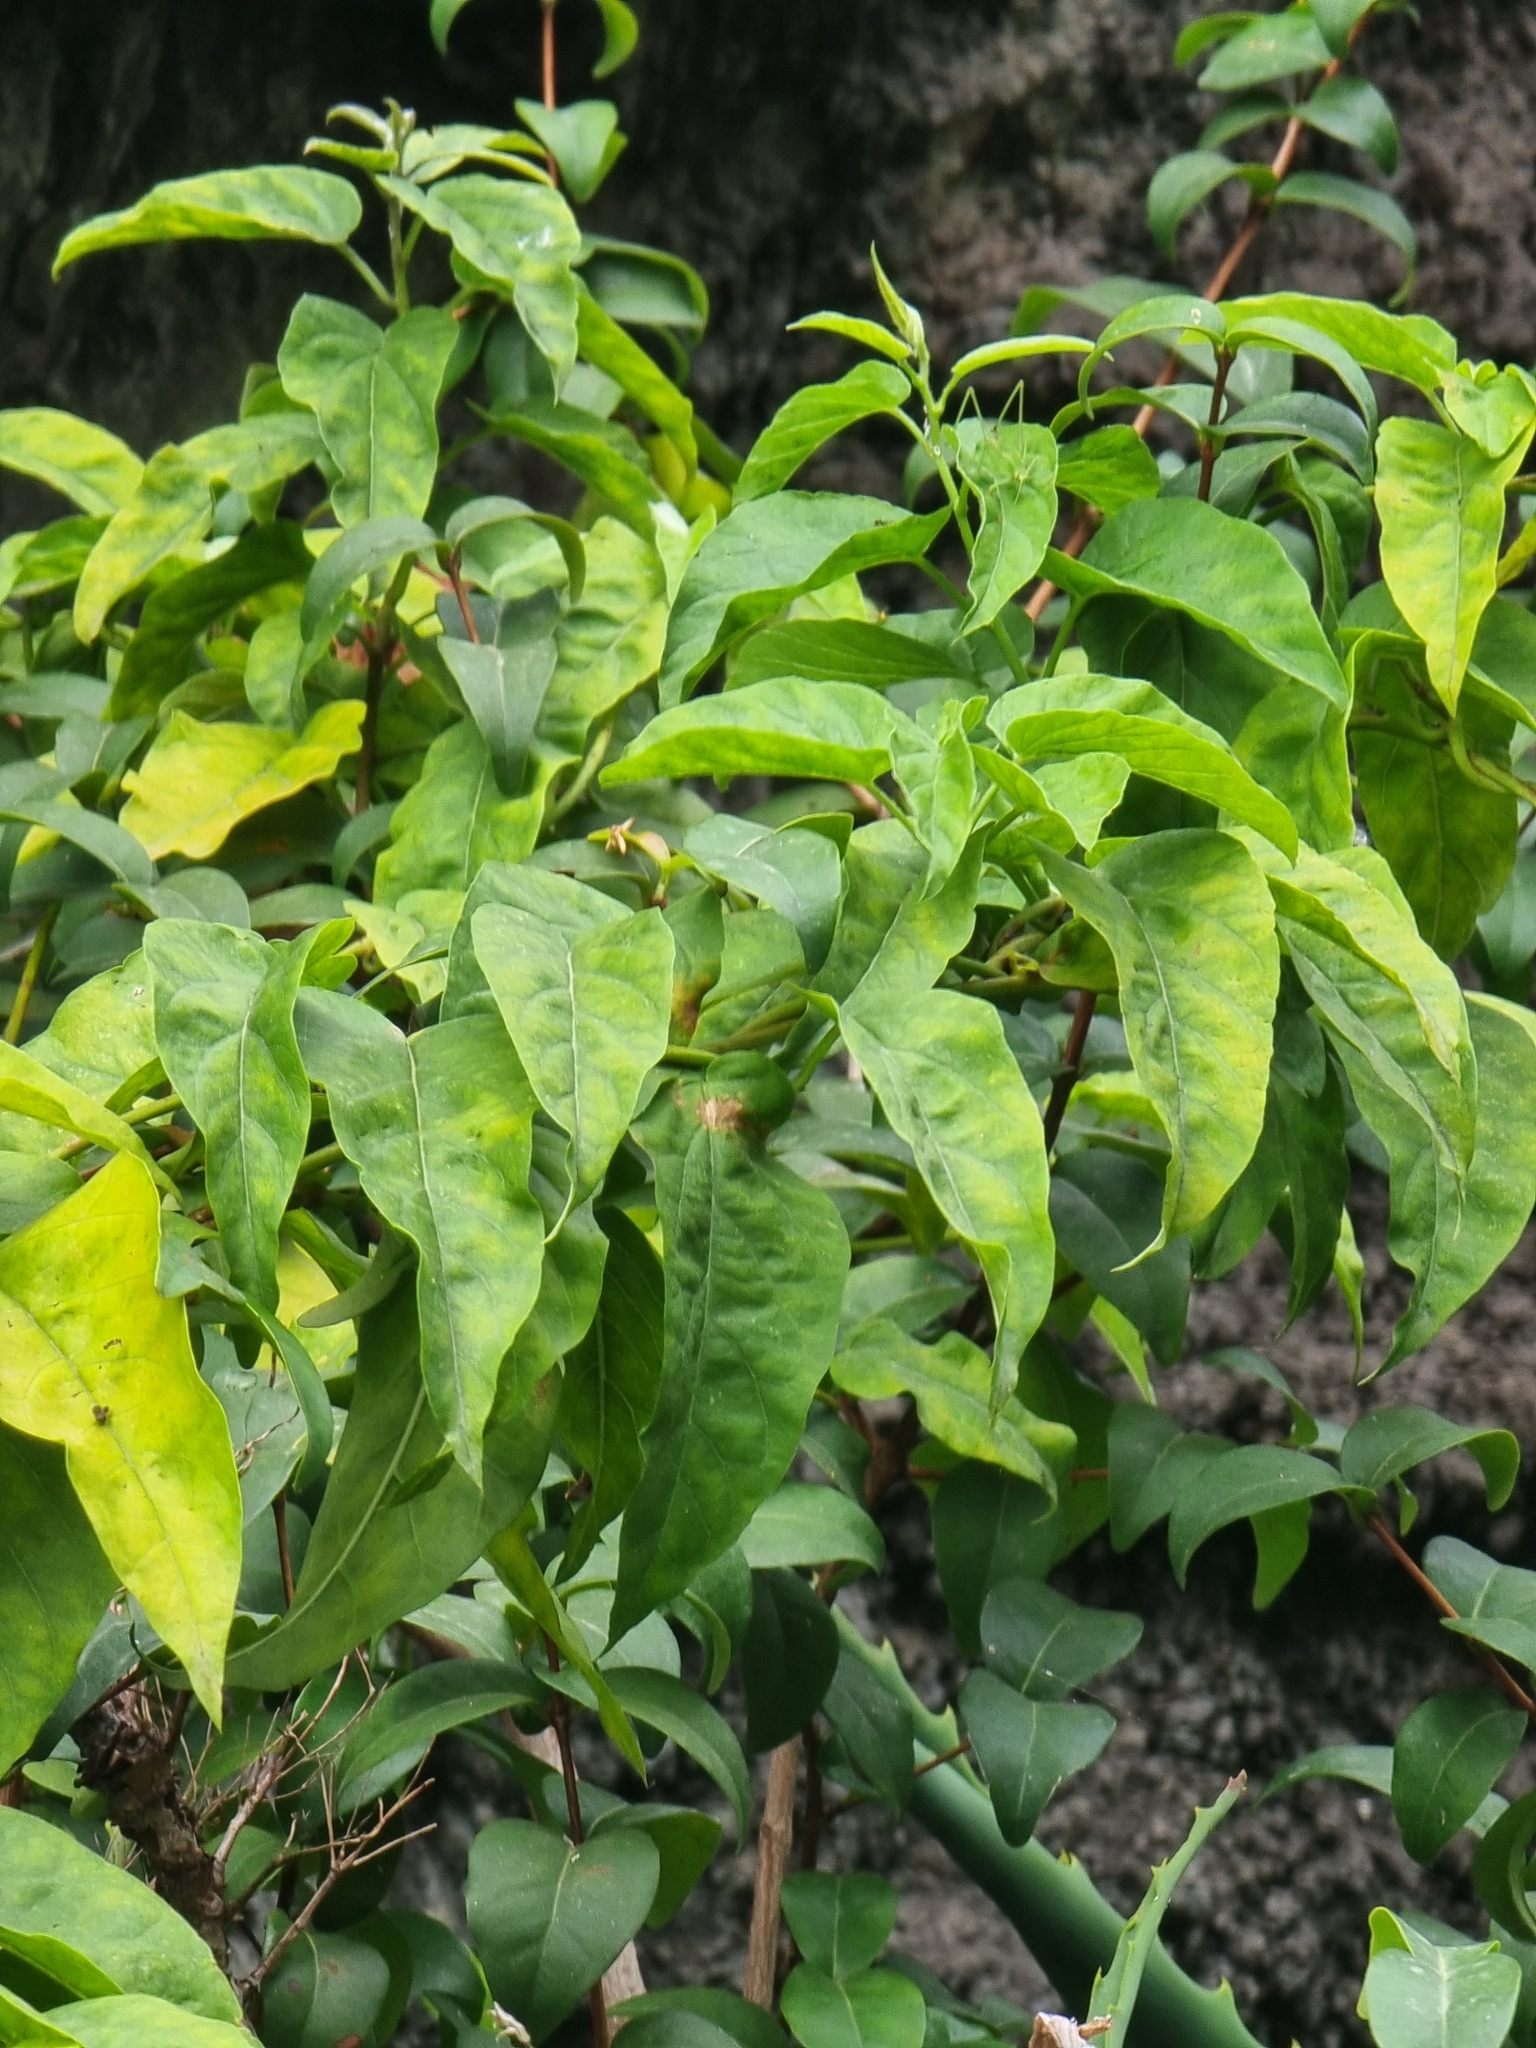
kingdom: Plantae
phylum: Tracheophyta
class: Magnoliopsida
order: Solanales
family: Convolvulaceae
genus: Convolvulus
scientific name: Convolvulus massonii
